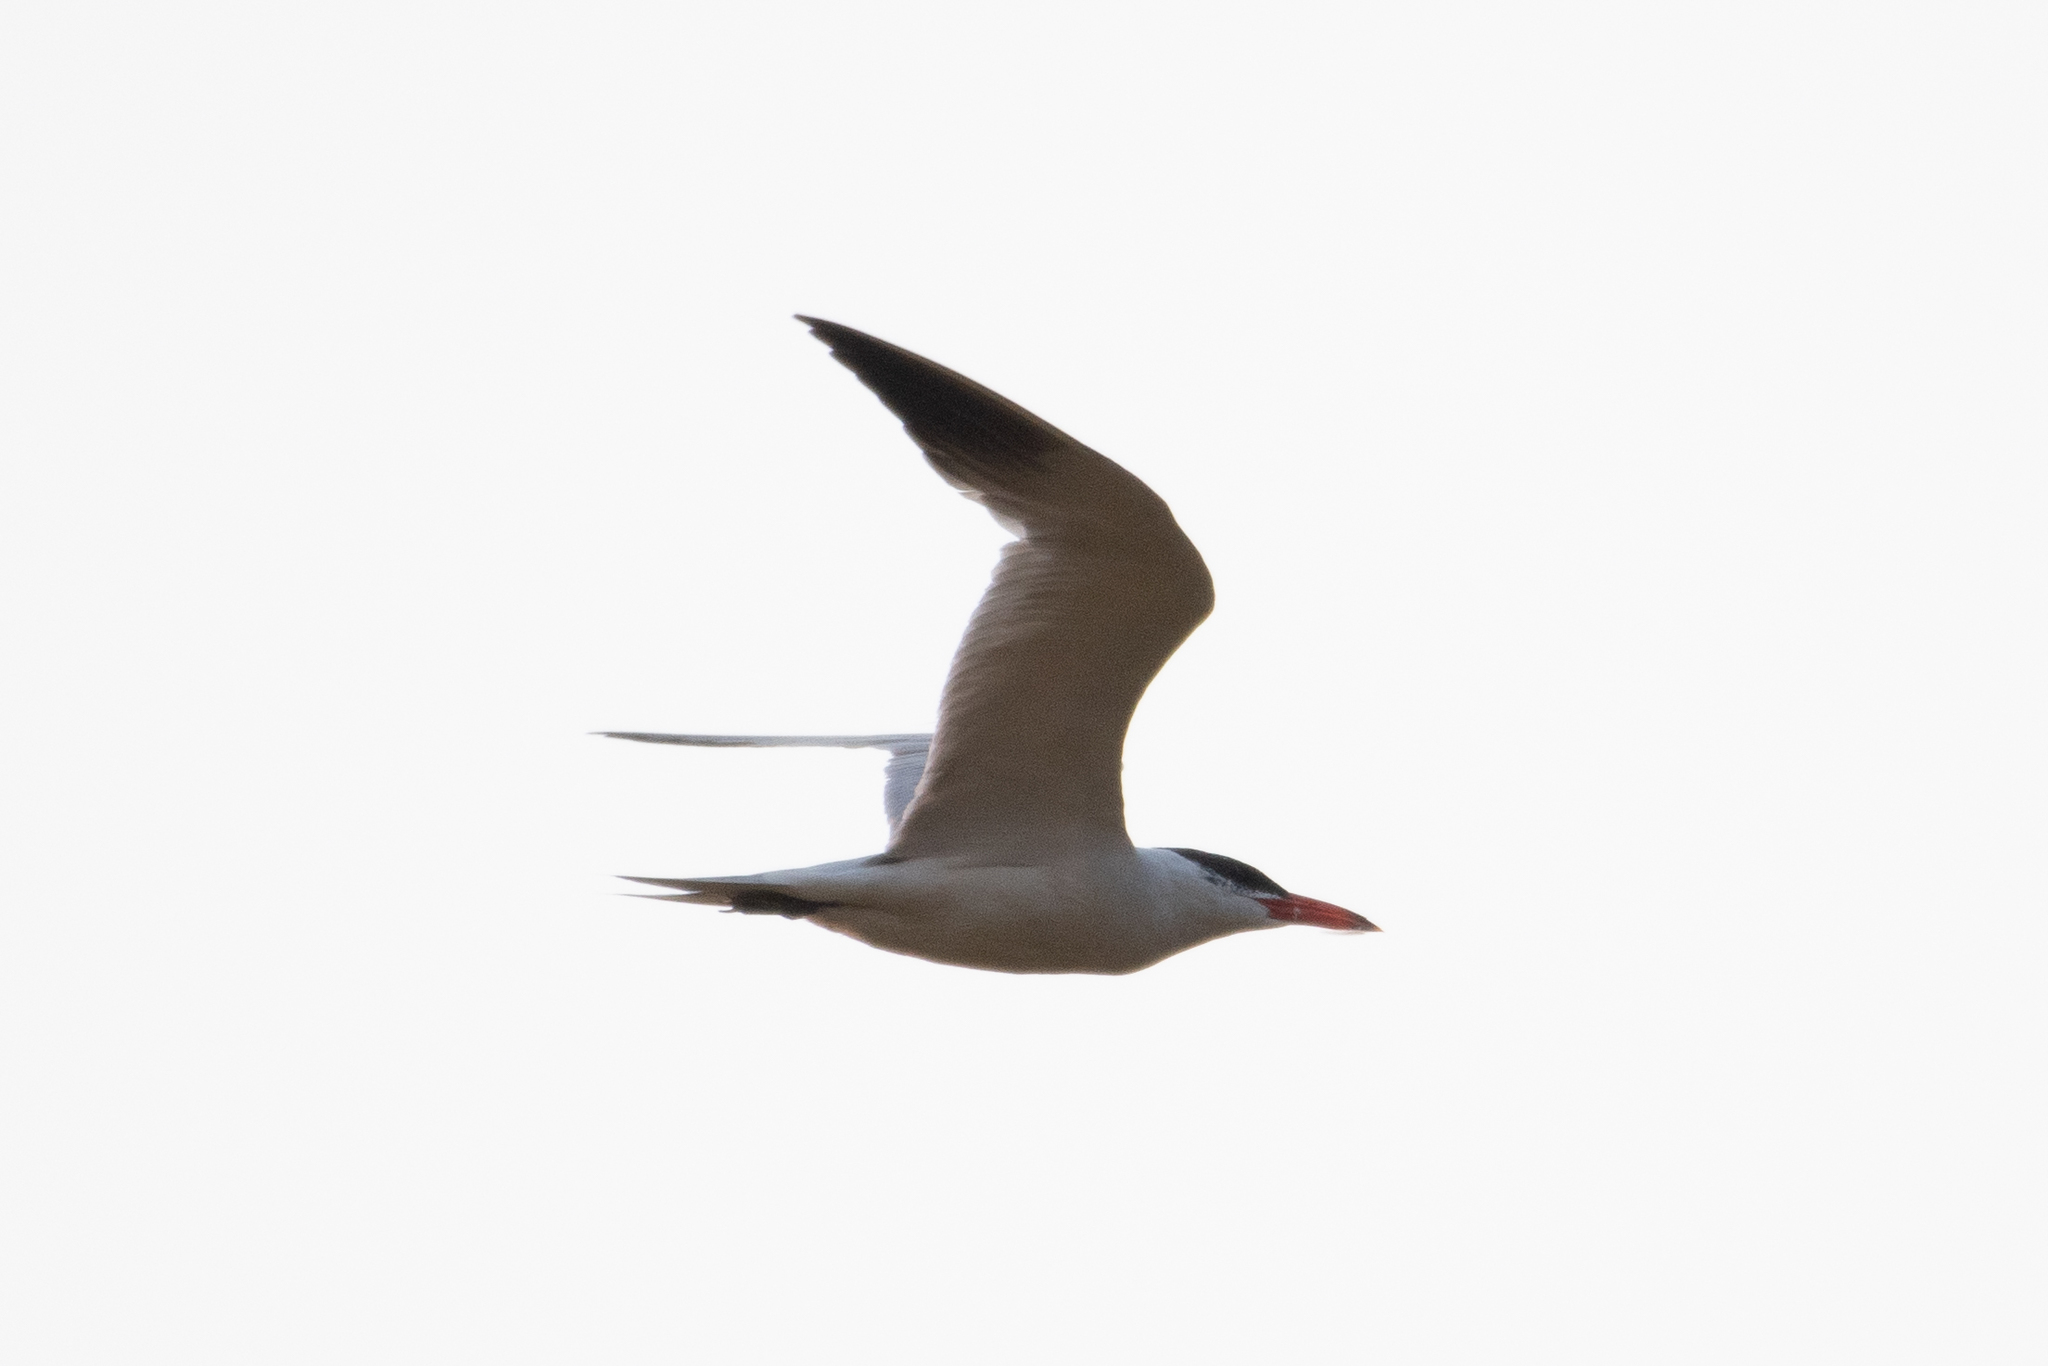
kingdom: Animalia
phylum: Chordata
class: Aves
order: Charadriiformes
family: Laridae
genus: Hydroprogne
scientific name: Hydroprogne caspia
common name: Caspian tern
